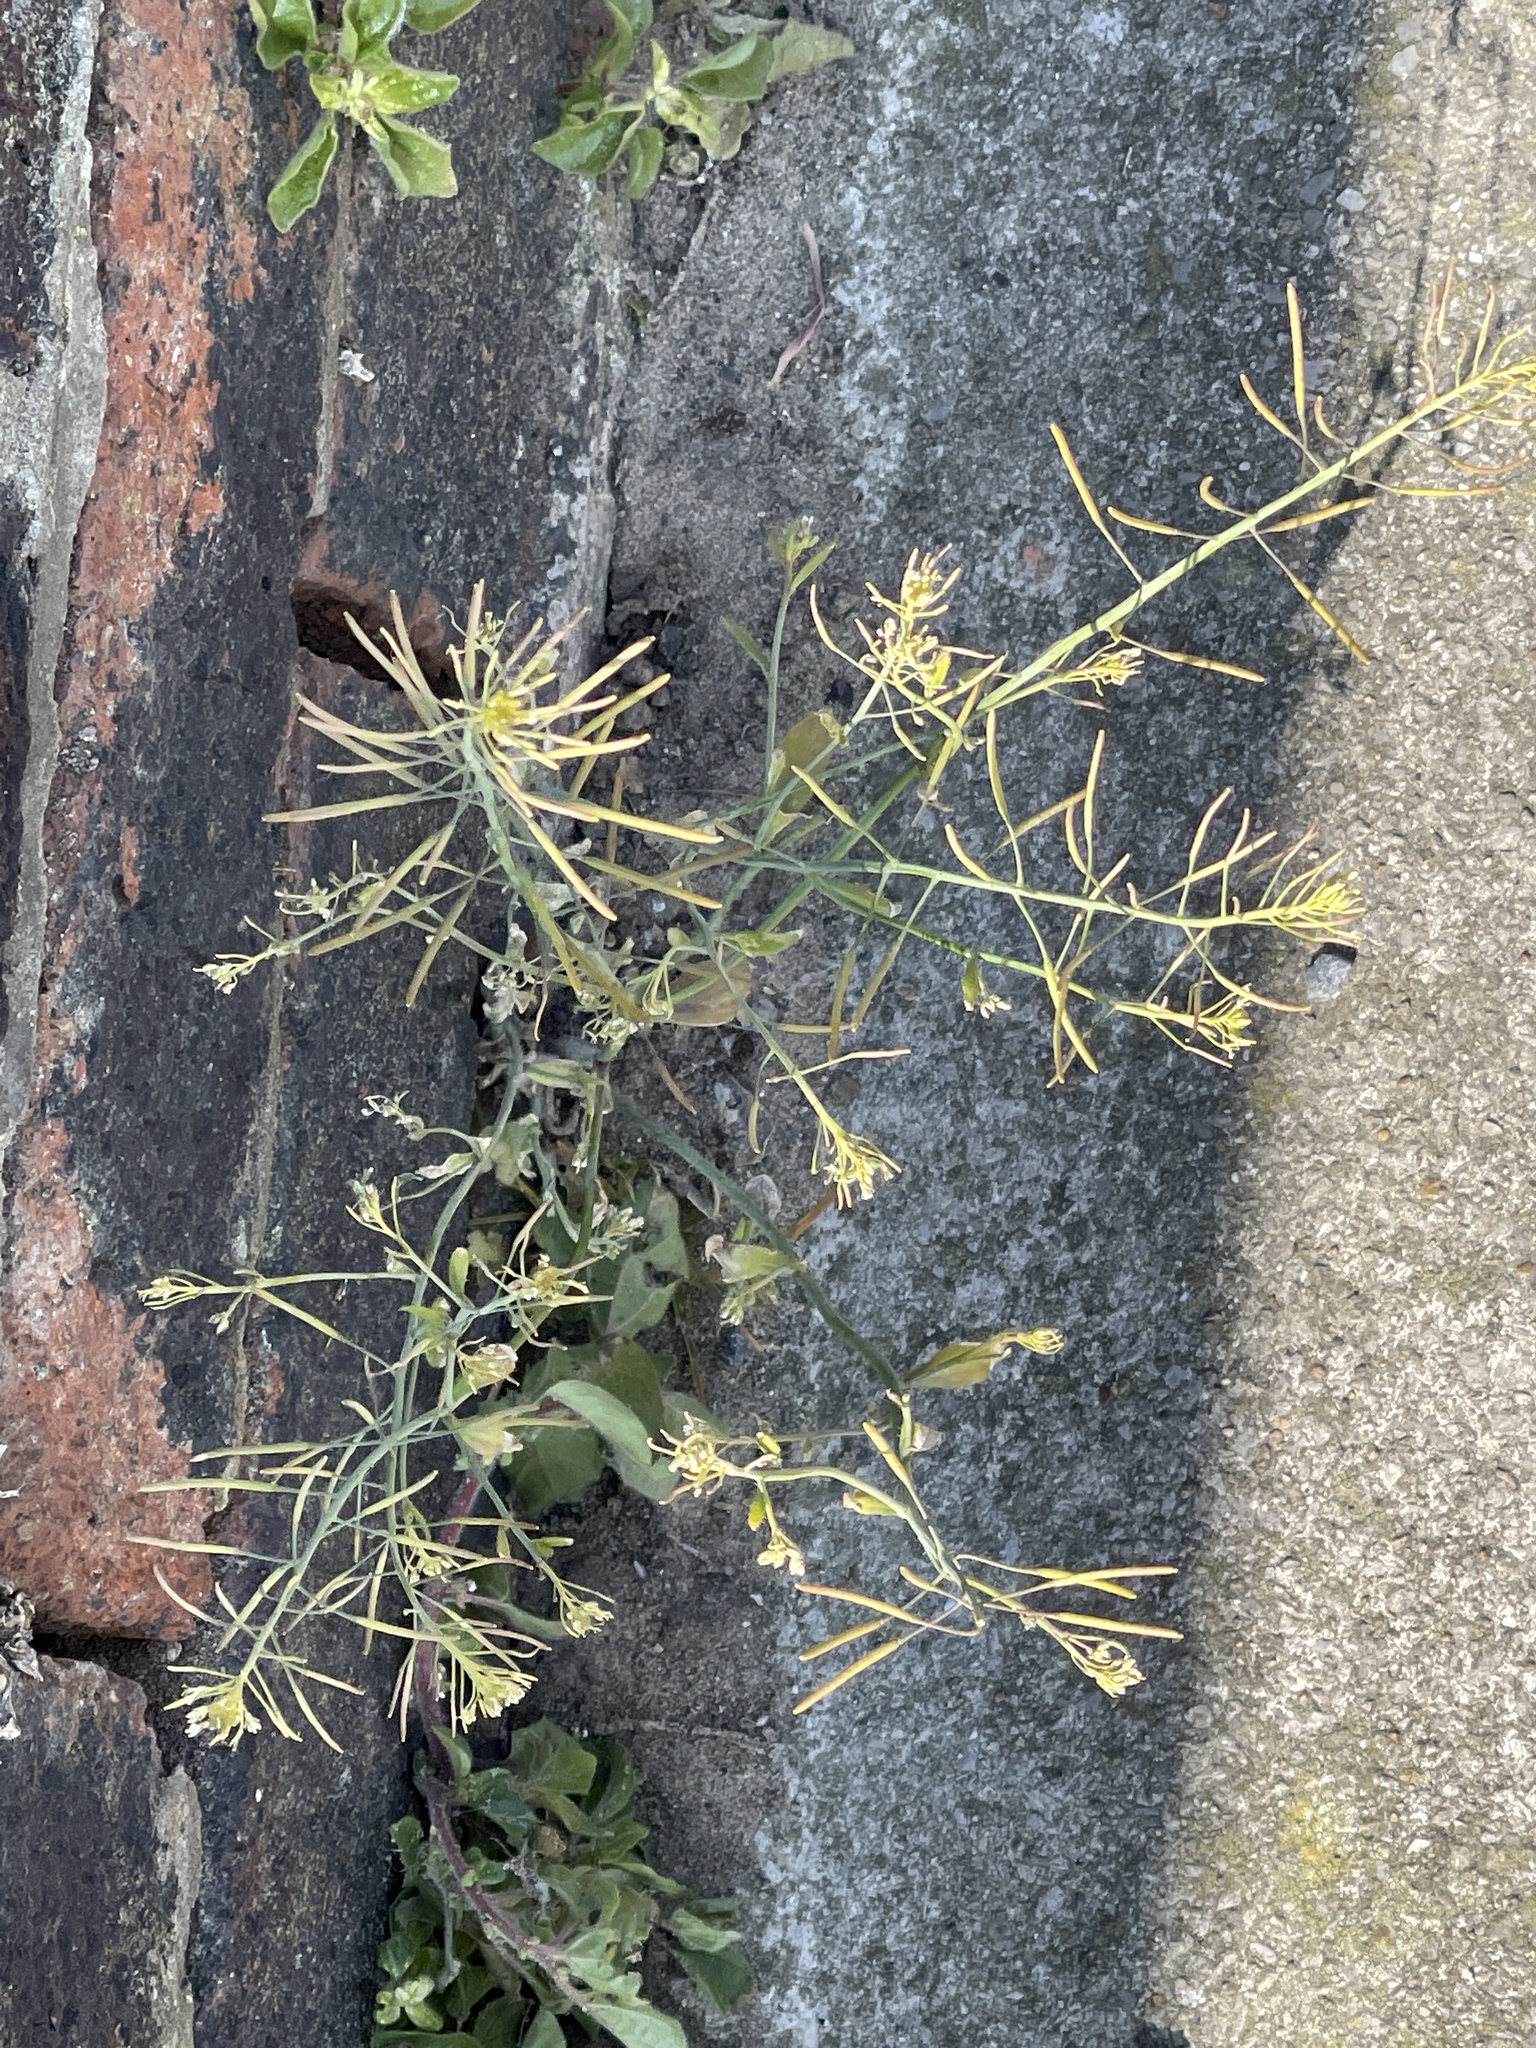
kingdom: Plantae
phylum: Tracheophyta
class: Magnoliopsida
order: Brassicales
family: Brassicaceae
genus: Arabidopsis
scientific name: Arabidopsis thaliana
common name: Thale cress
